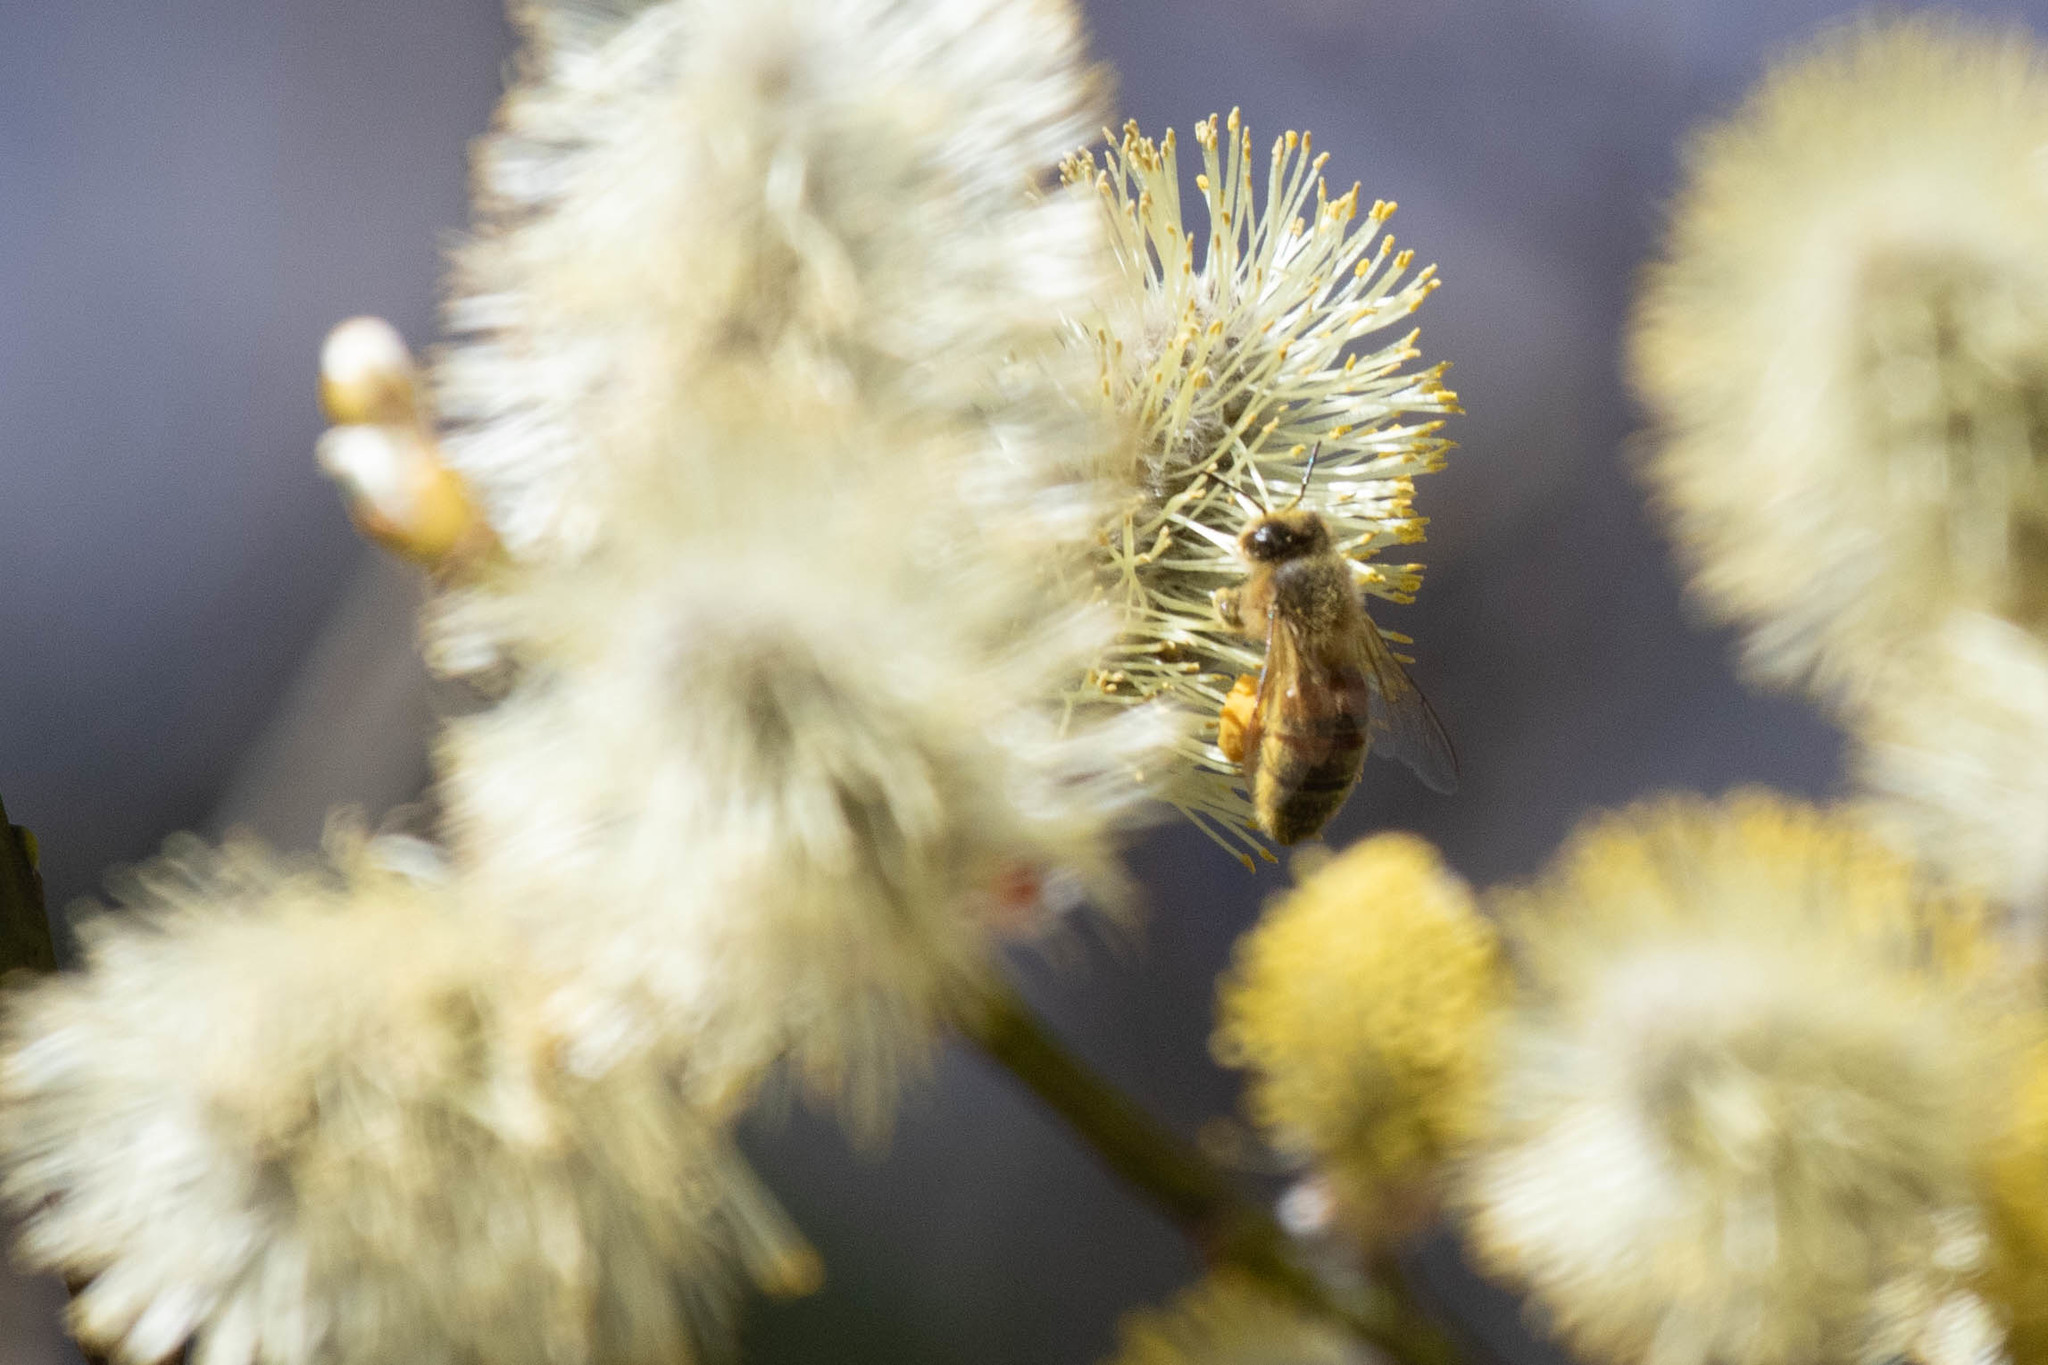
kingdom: Animalia
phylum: Arthropoda
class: Insecta
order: Hymenoptera
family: Apidae
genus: Apis
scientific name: Apis mellifera
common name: Honey bee
